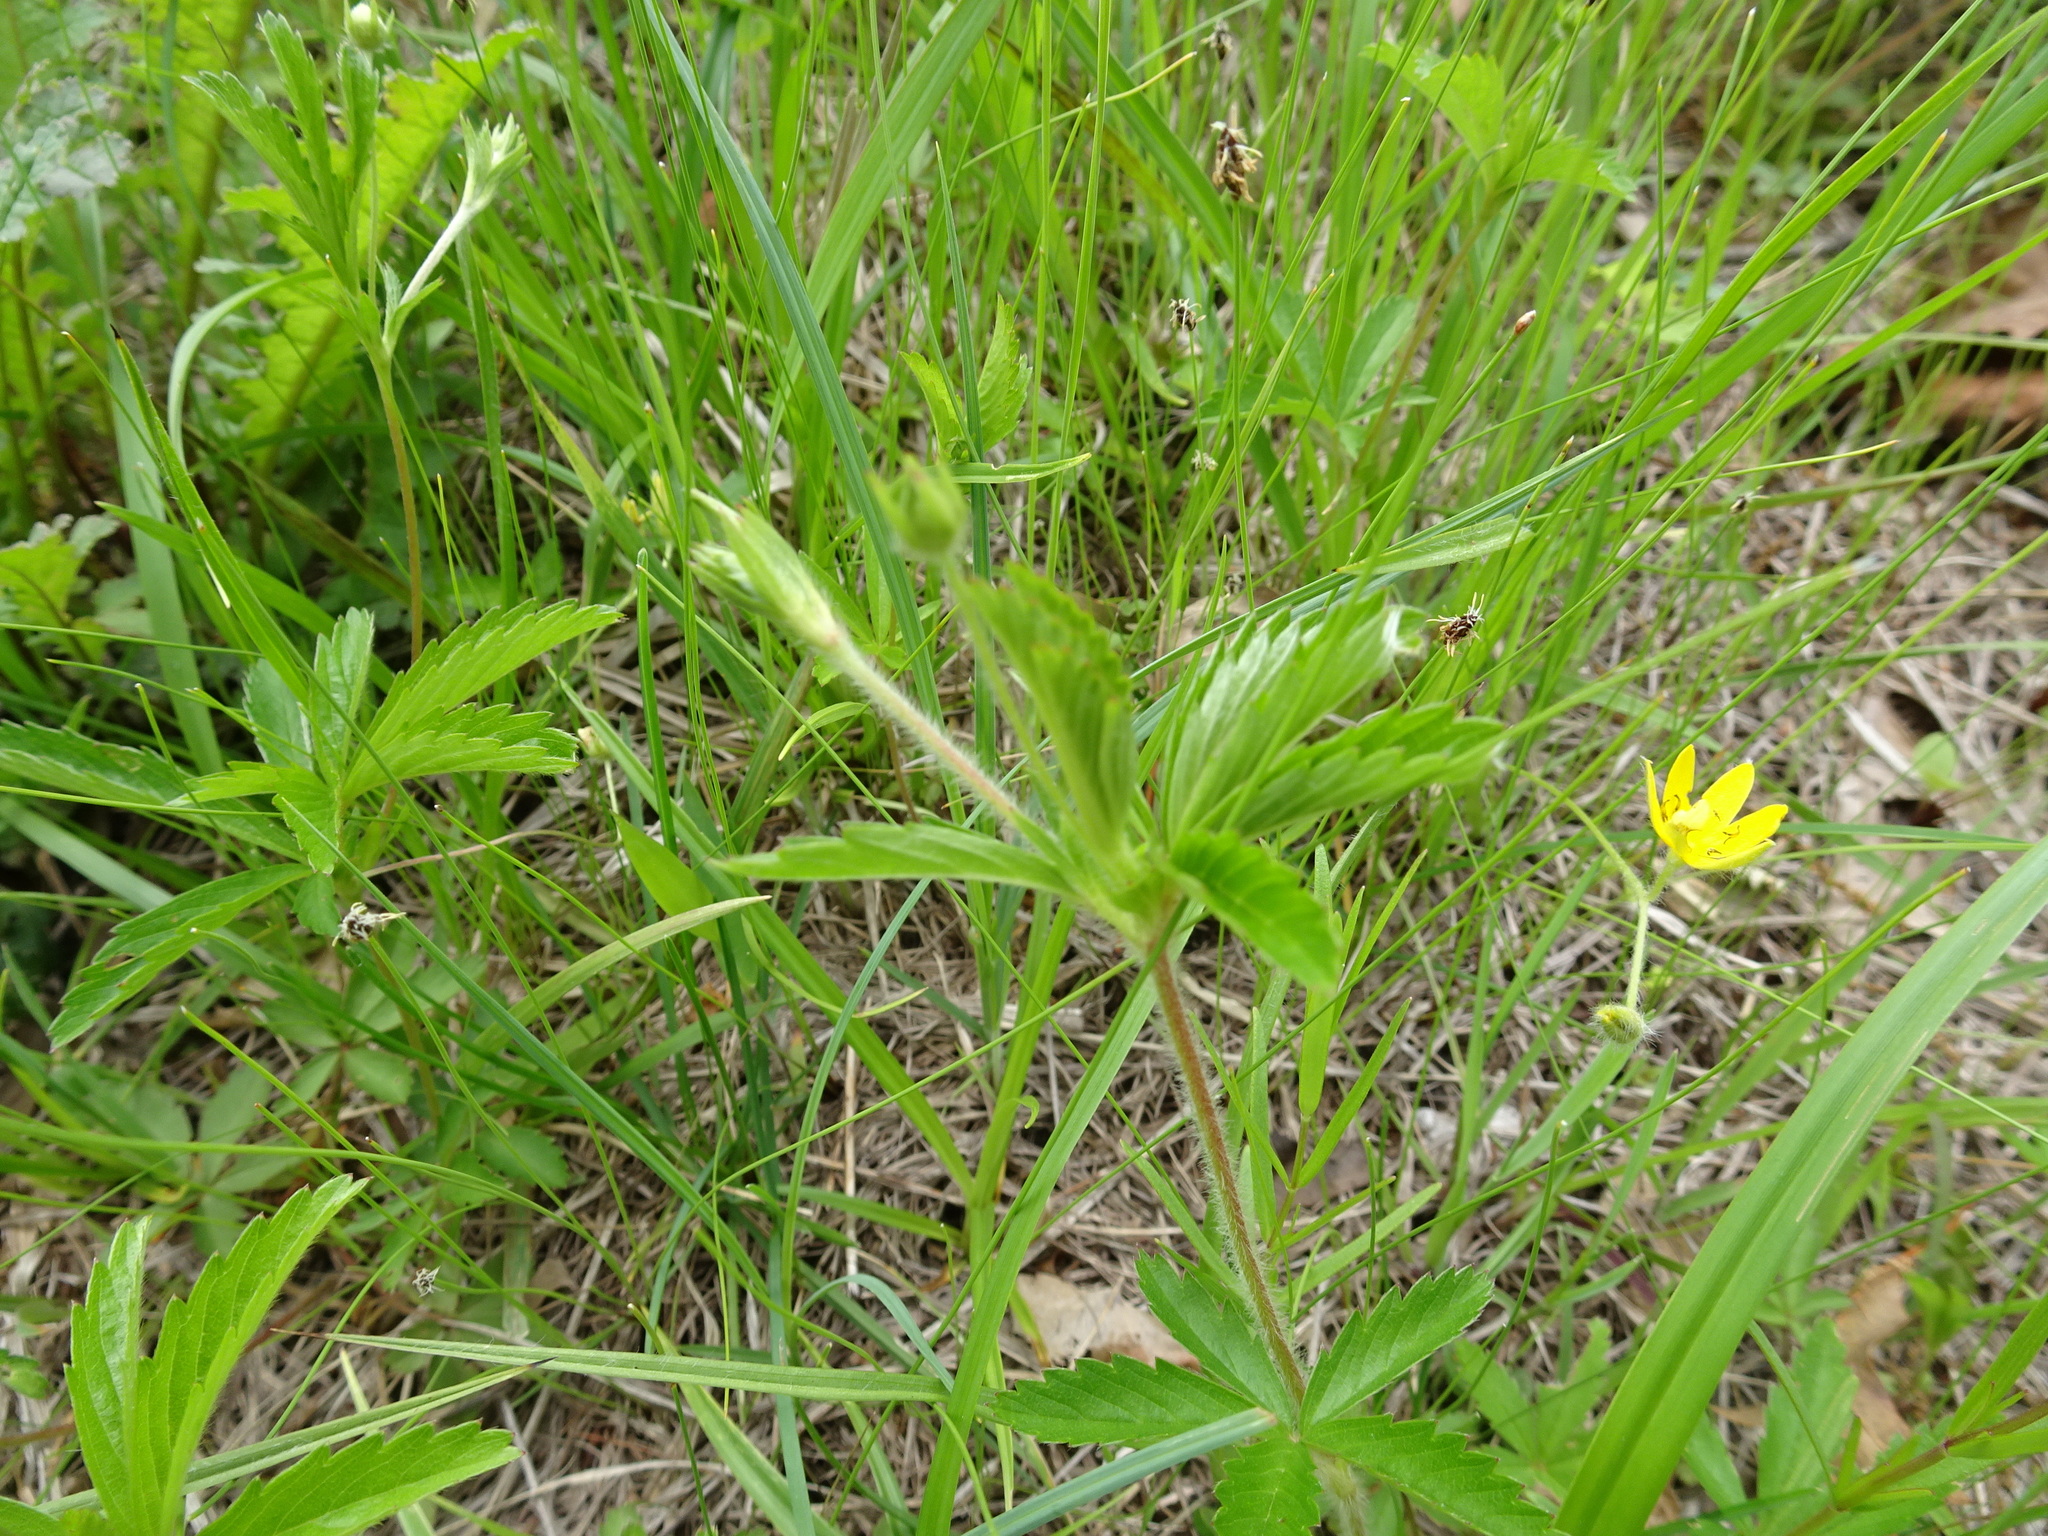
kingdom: Plantae
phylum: Tracheophyta
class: Magnoliopsida
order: Rosales
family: Rosaceae
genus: Potentilla
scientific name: Potentilla simplex
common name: Old field cinquefoil
